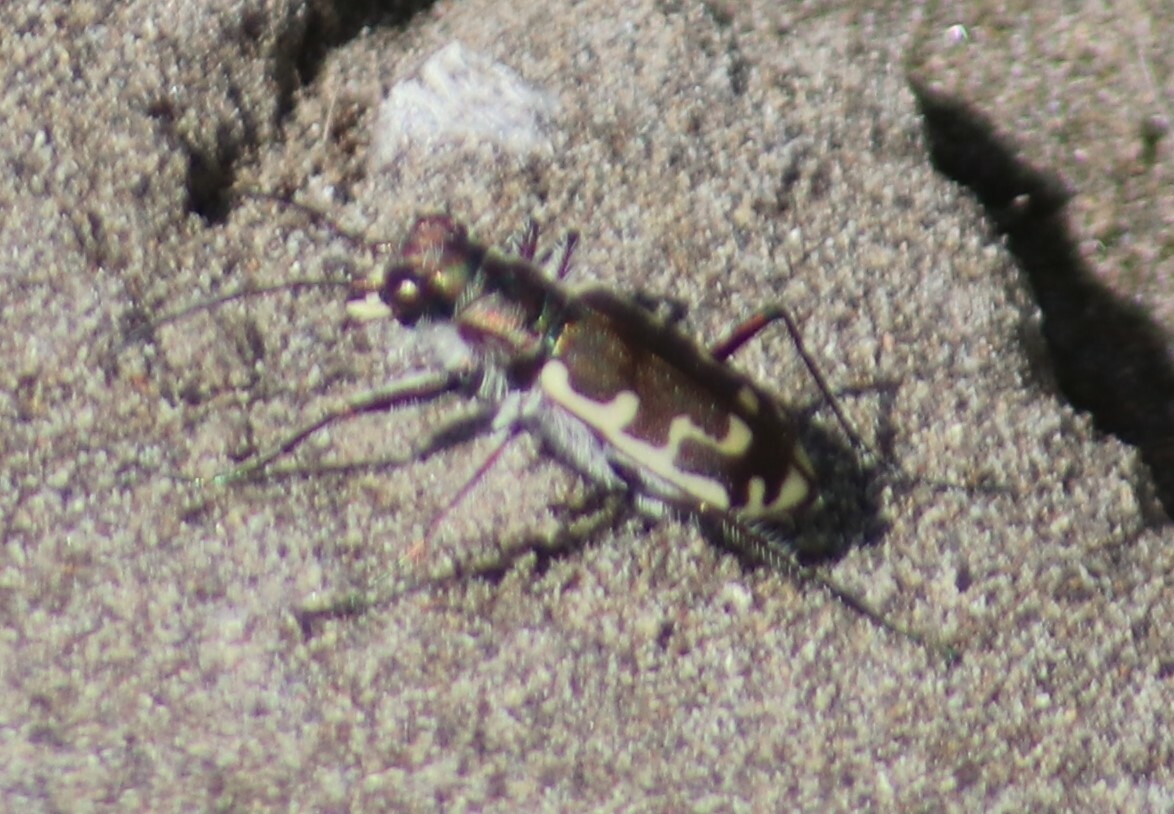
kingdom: Animalia
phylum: Arthropoda
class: Insecta
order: Coleoptera
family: Carabidae
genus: Cicindela
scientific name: Cicindela repanda
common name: Bronzed tiger beetle
